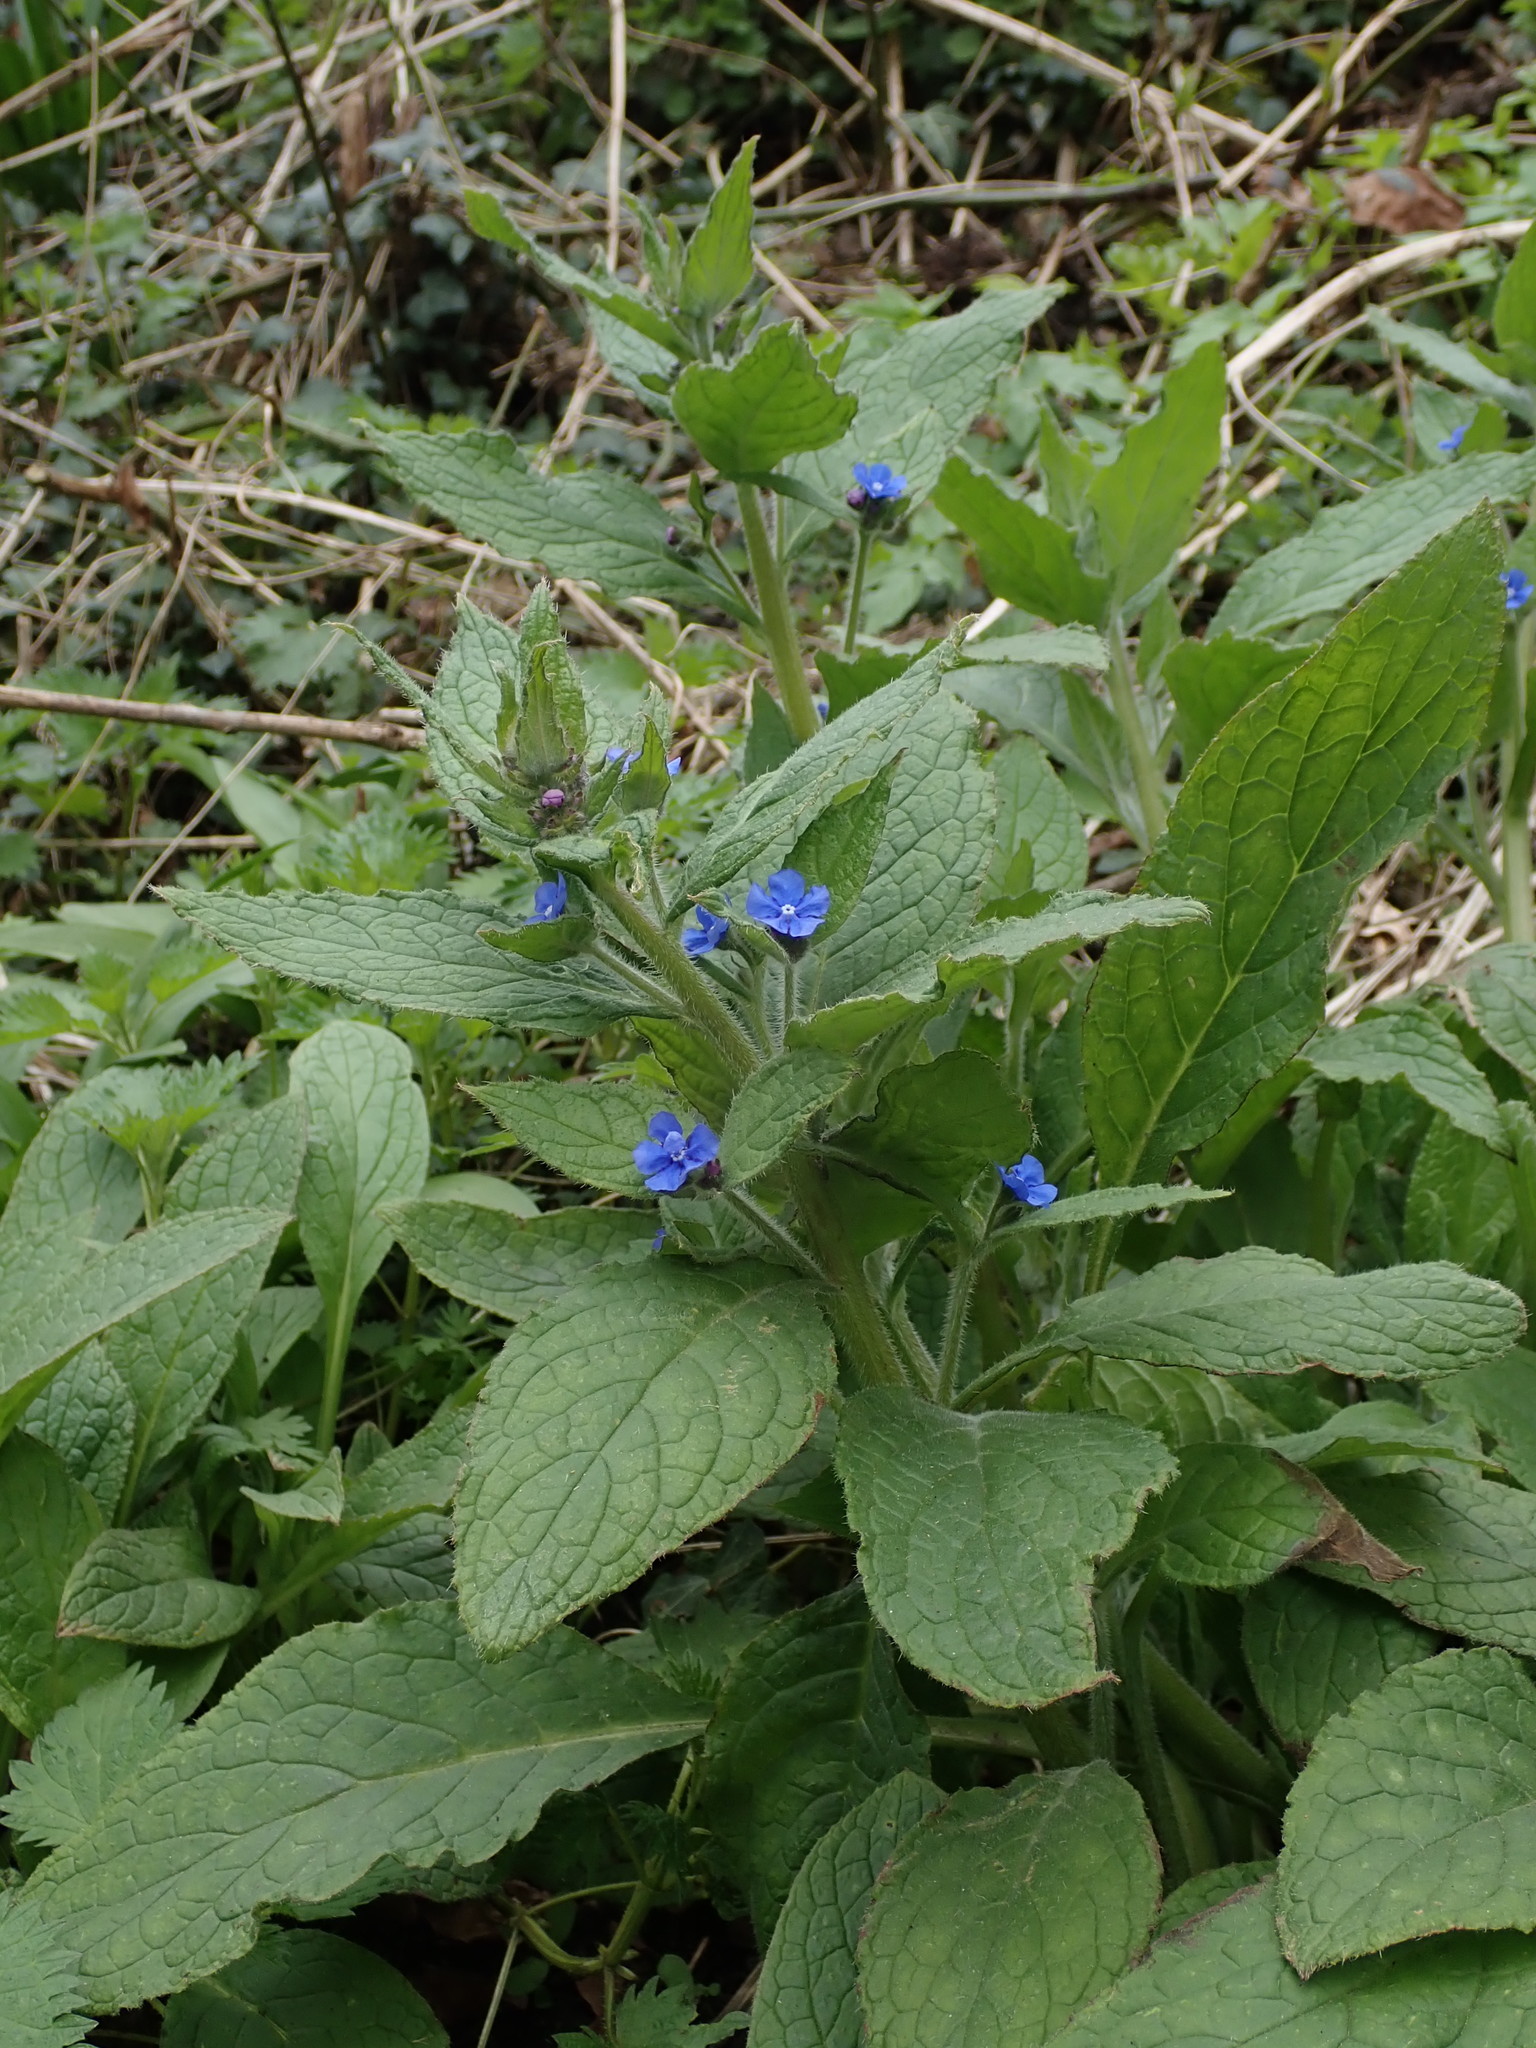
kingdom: Plantae
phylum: Tracheophyta
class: Magnoliopsida
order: Boraginales
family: Boraginaceae
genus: Pentaglottis
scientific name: Pentaglottis sempervirens
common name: Green alkanet
